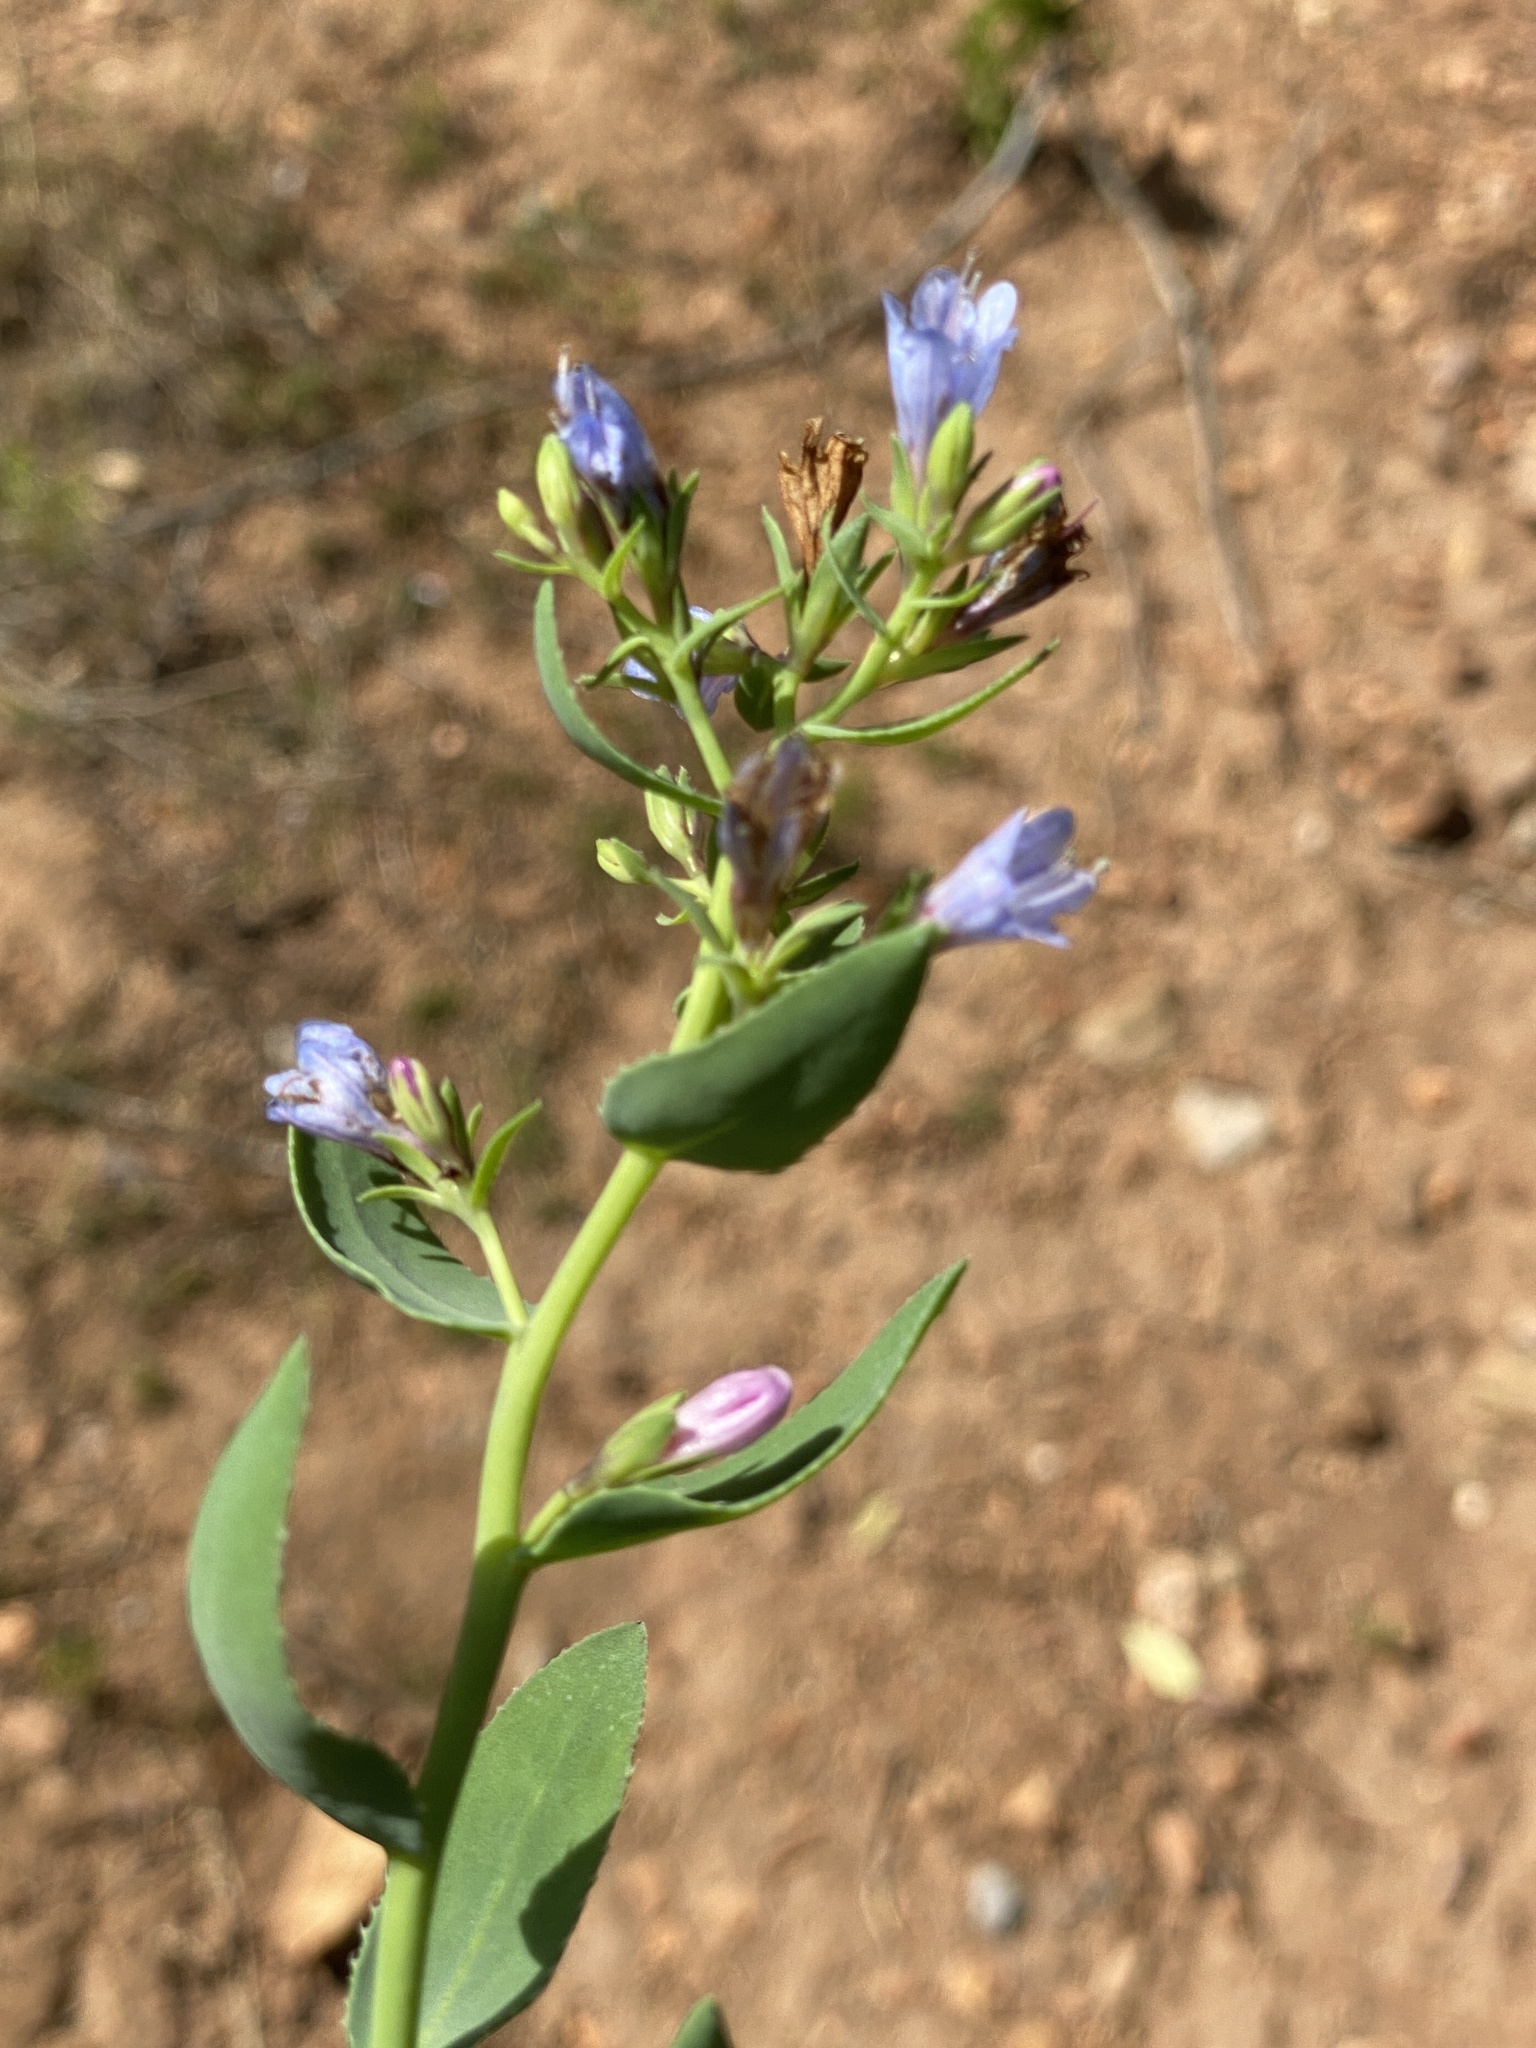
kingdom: Plantae
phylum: Tracheophyta
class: Magnoliopsida
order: Boraginales
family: Boraginaceae
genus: Lobostemon
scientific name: Lobostemon glaucophyllus
